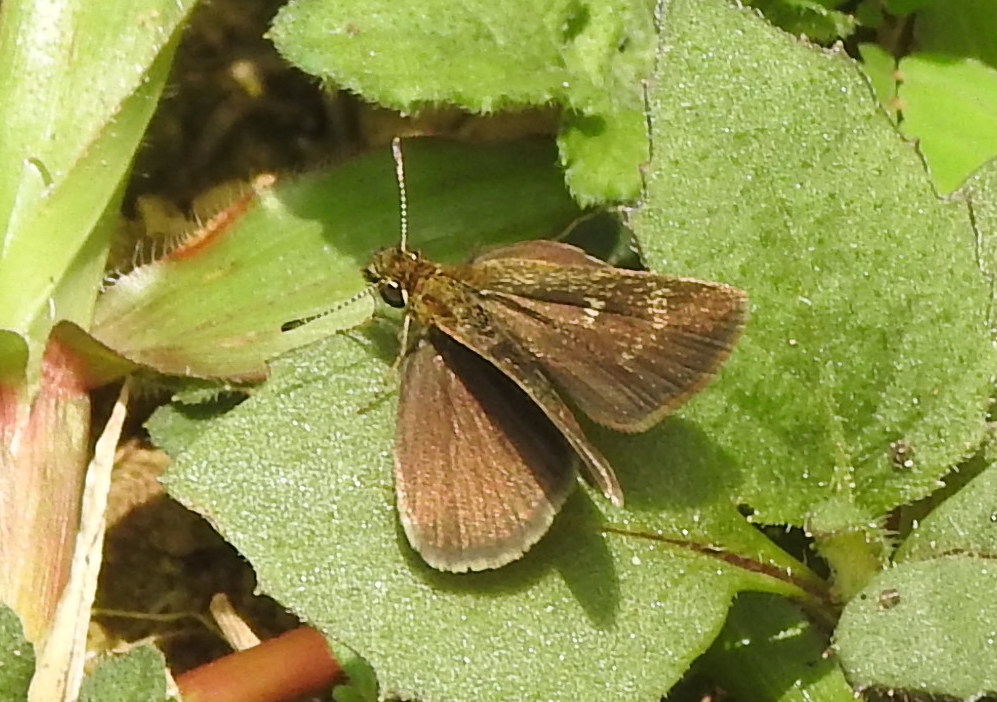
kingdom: Animalia
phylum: Arthropoda
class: Insecta
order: Lepidoptera
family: Hesperiidae
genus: Aeromachus
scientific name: Aeromachus pygmaeus
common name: Pygmy scrub hopper
